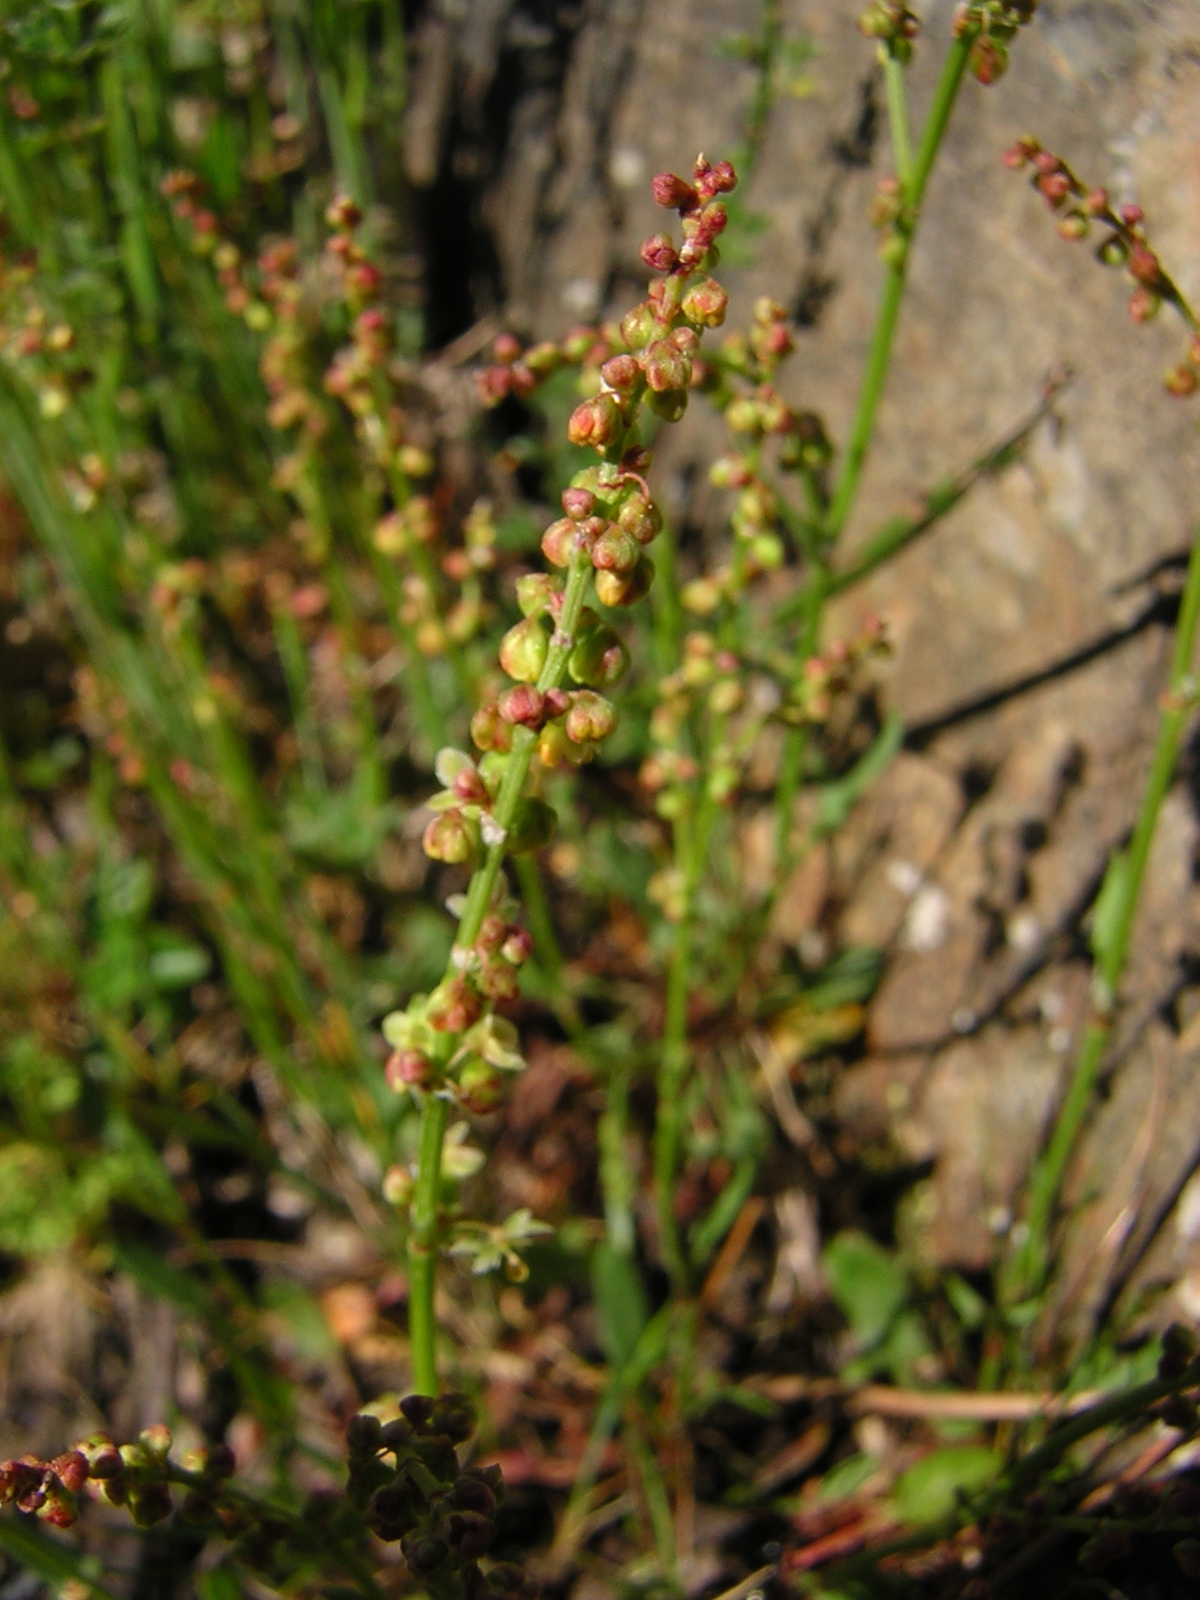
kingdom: Plantae
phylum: Tracheophyta
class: Magnoliopsida
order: Caryophyllales
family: Polygonaceae
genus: Rumex
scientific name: Rumex acetosella
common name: Common sheep sorrel
